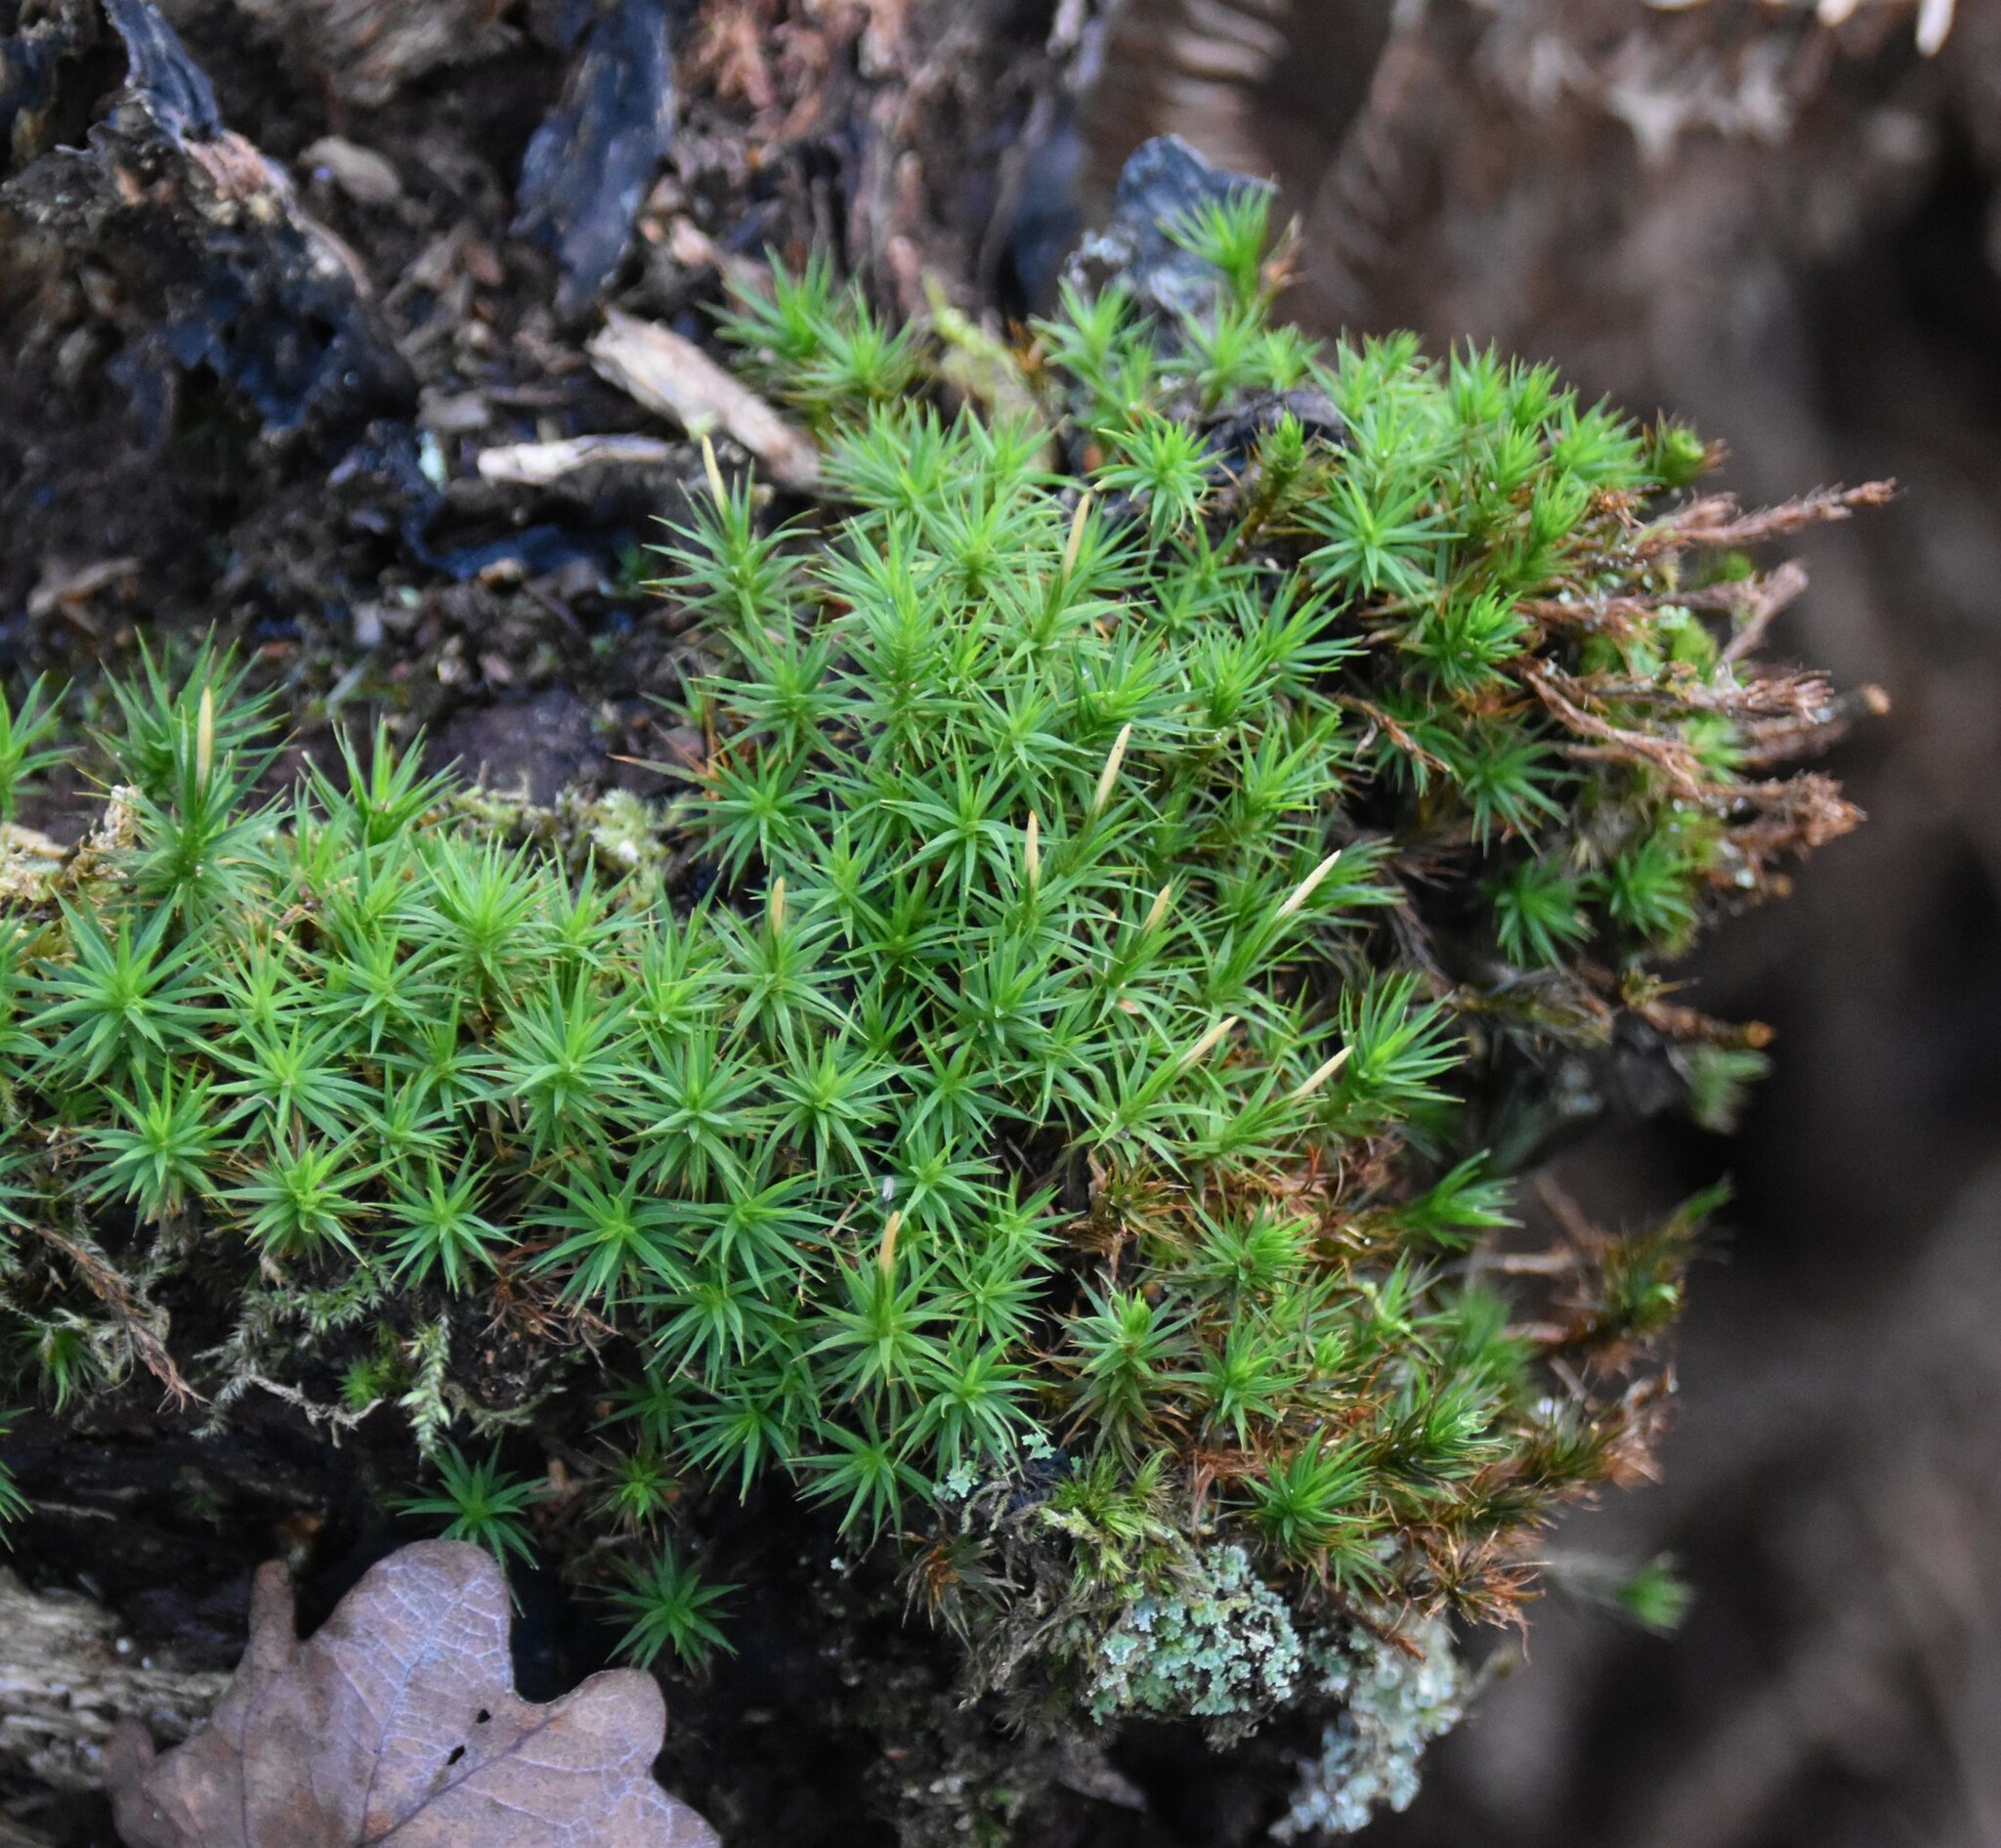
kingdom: Plantae
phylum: Bryophyta
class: Polytrichopsida
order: Polytrichales
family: Polytrichaceae
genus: Polytrichum
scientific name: Polytrichum formosum
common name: Bank haircap moss
